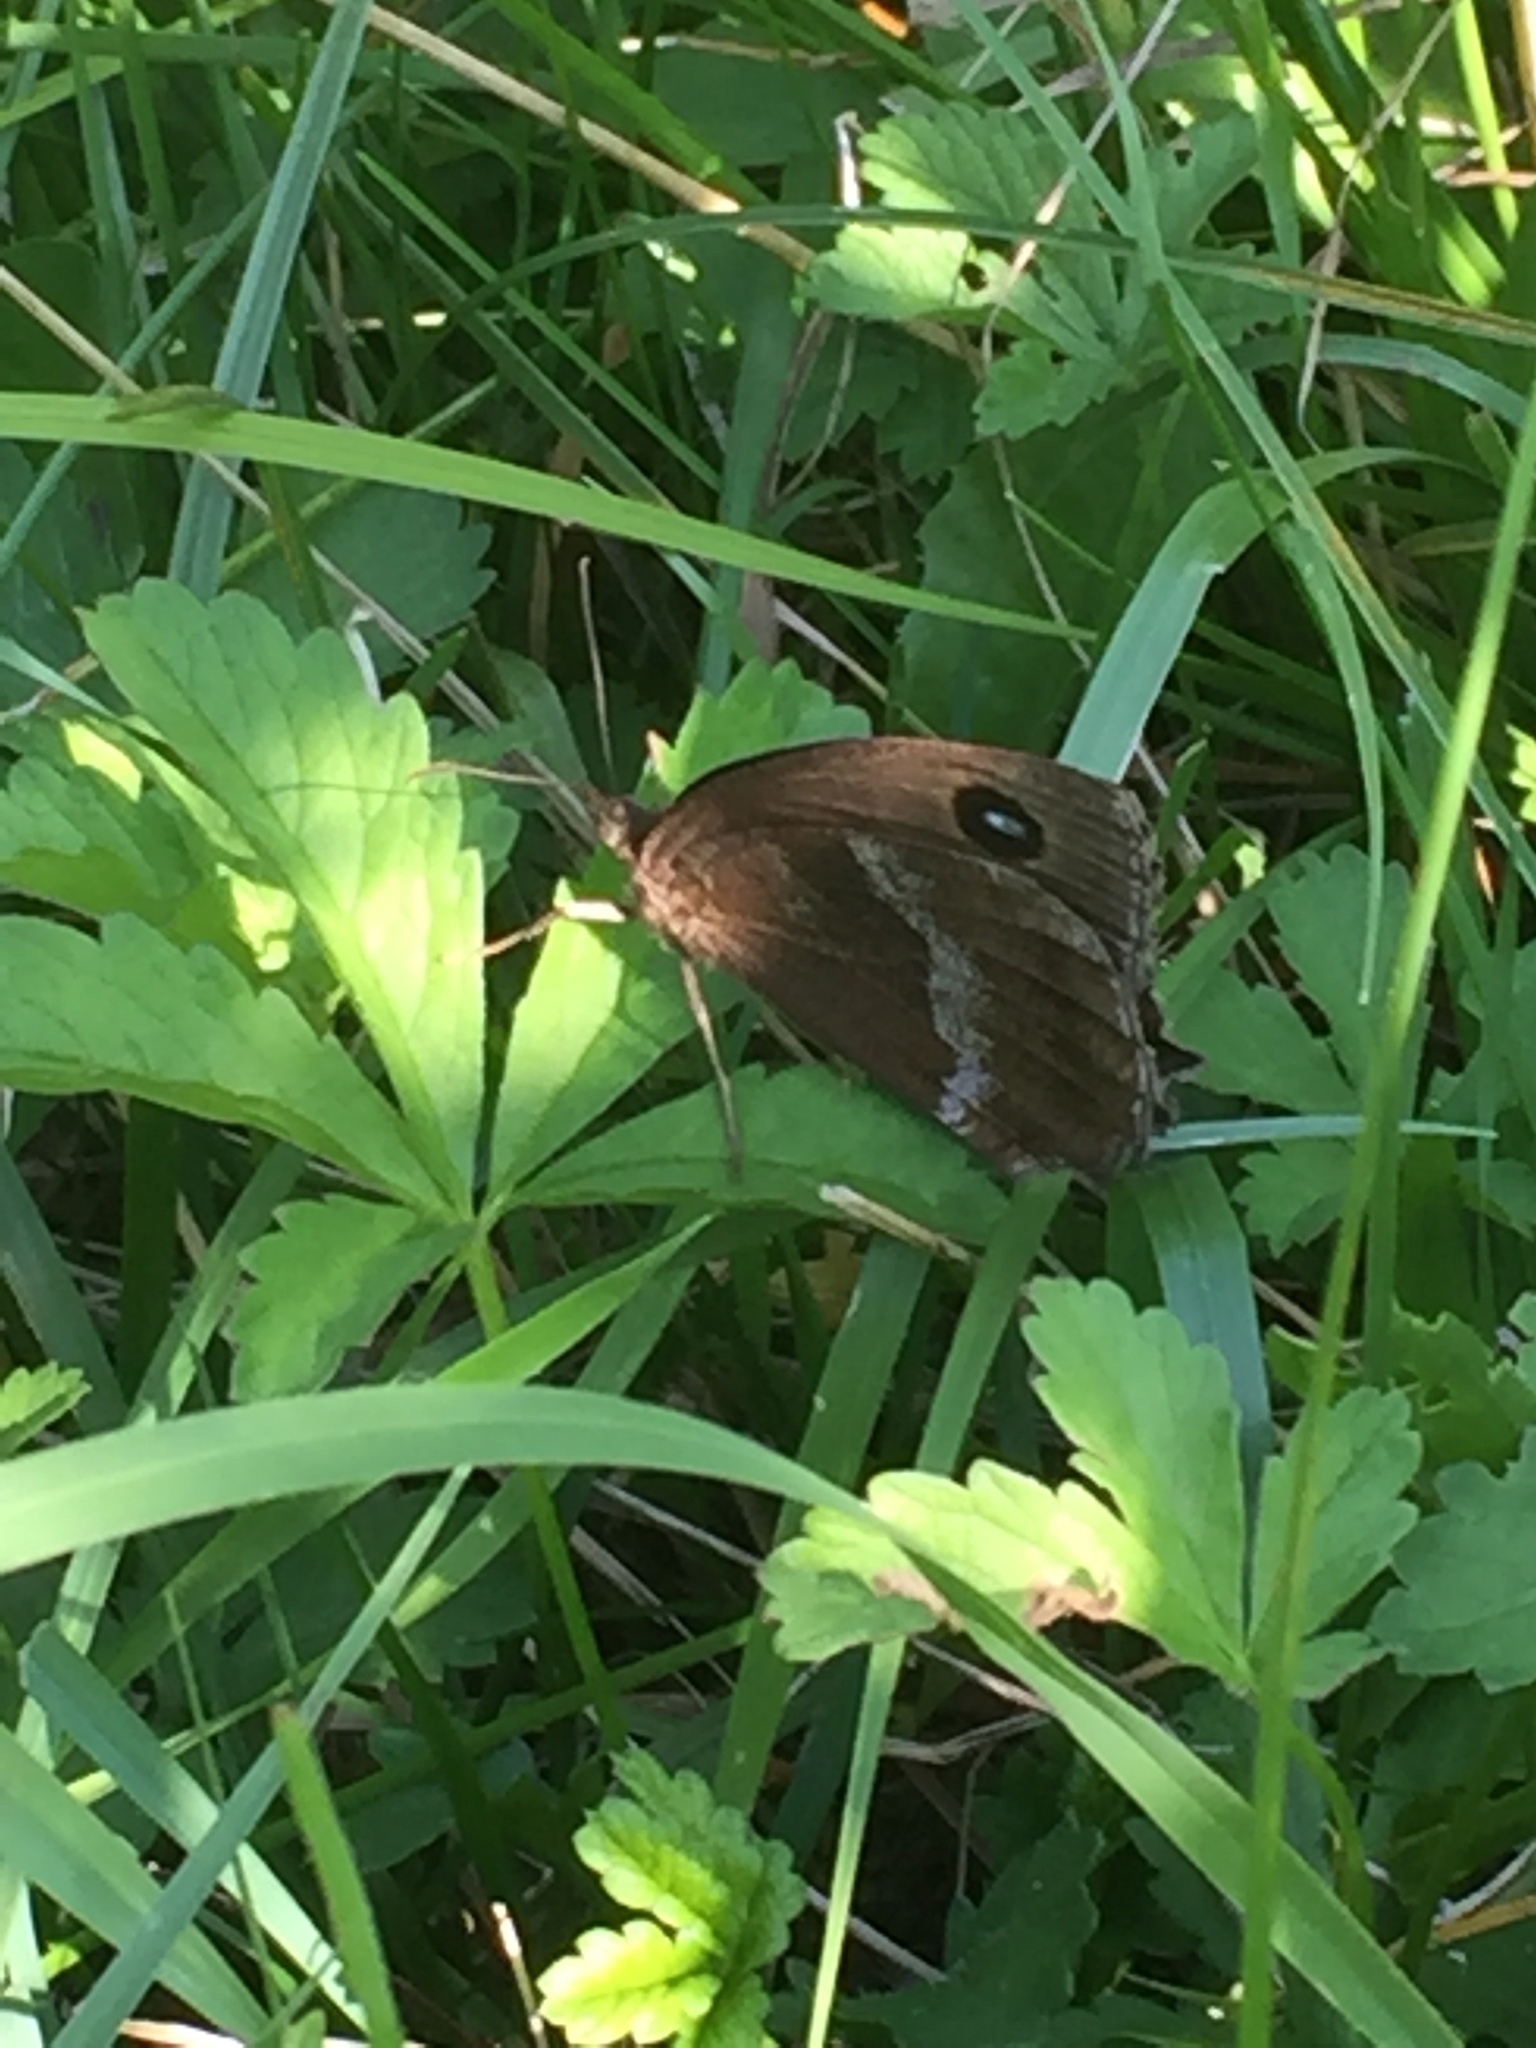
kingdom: Animalia
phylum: Arthropoda
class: Insecta
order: Lepidoptera
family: Nymphalidae
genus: Minois
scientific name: Minois dryas
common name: Dryad
